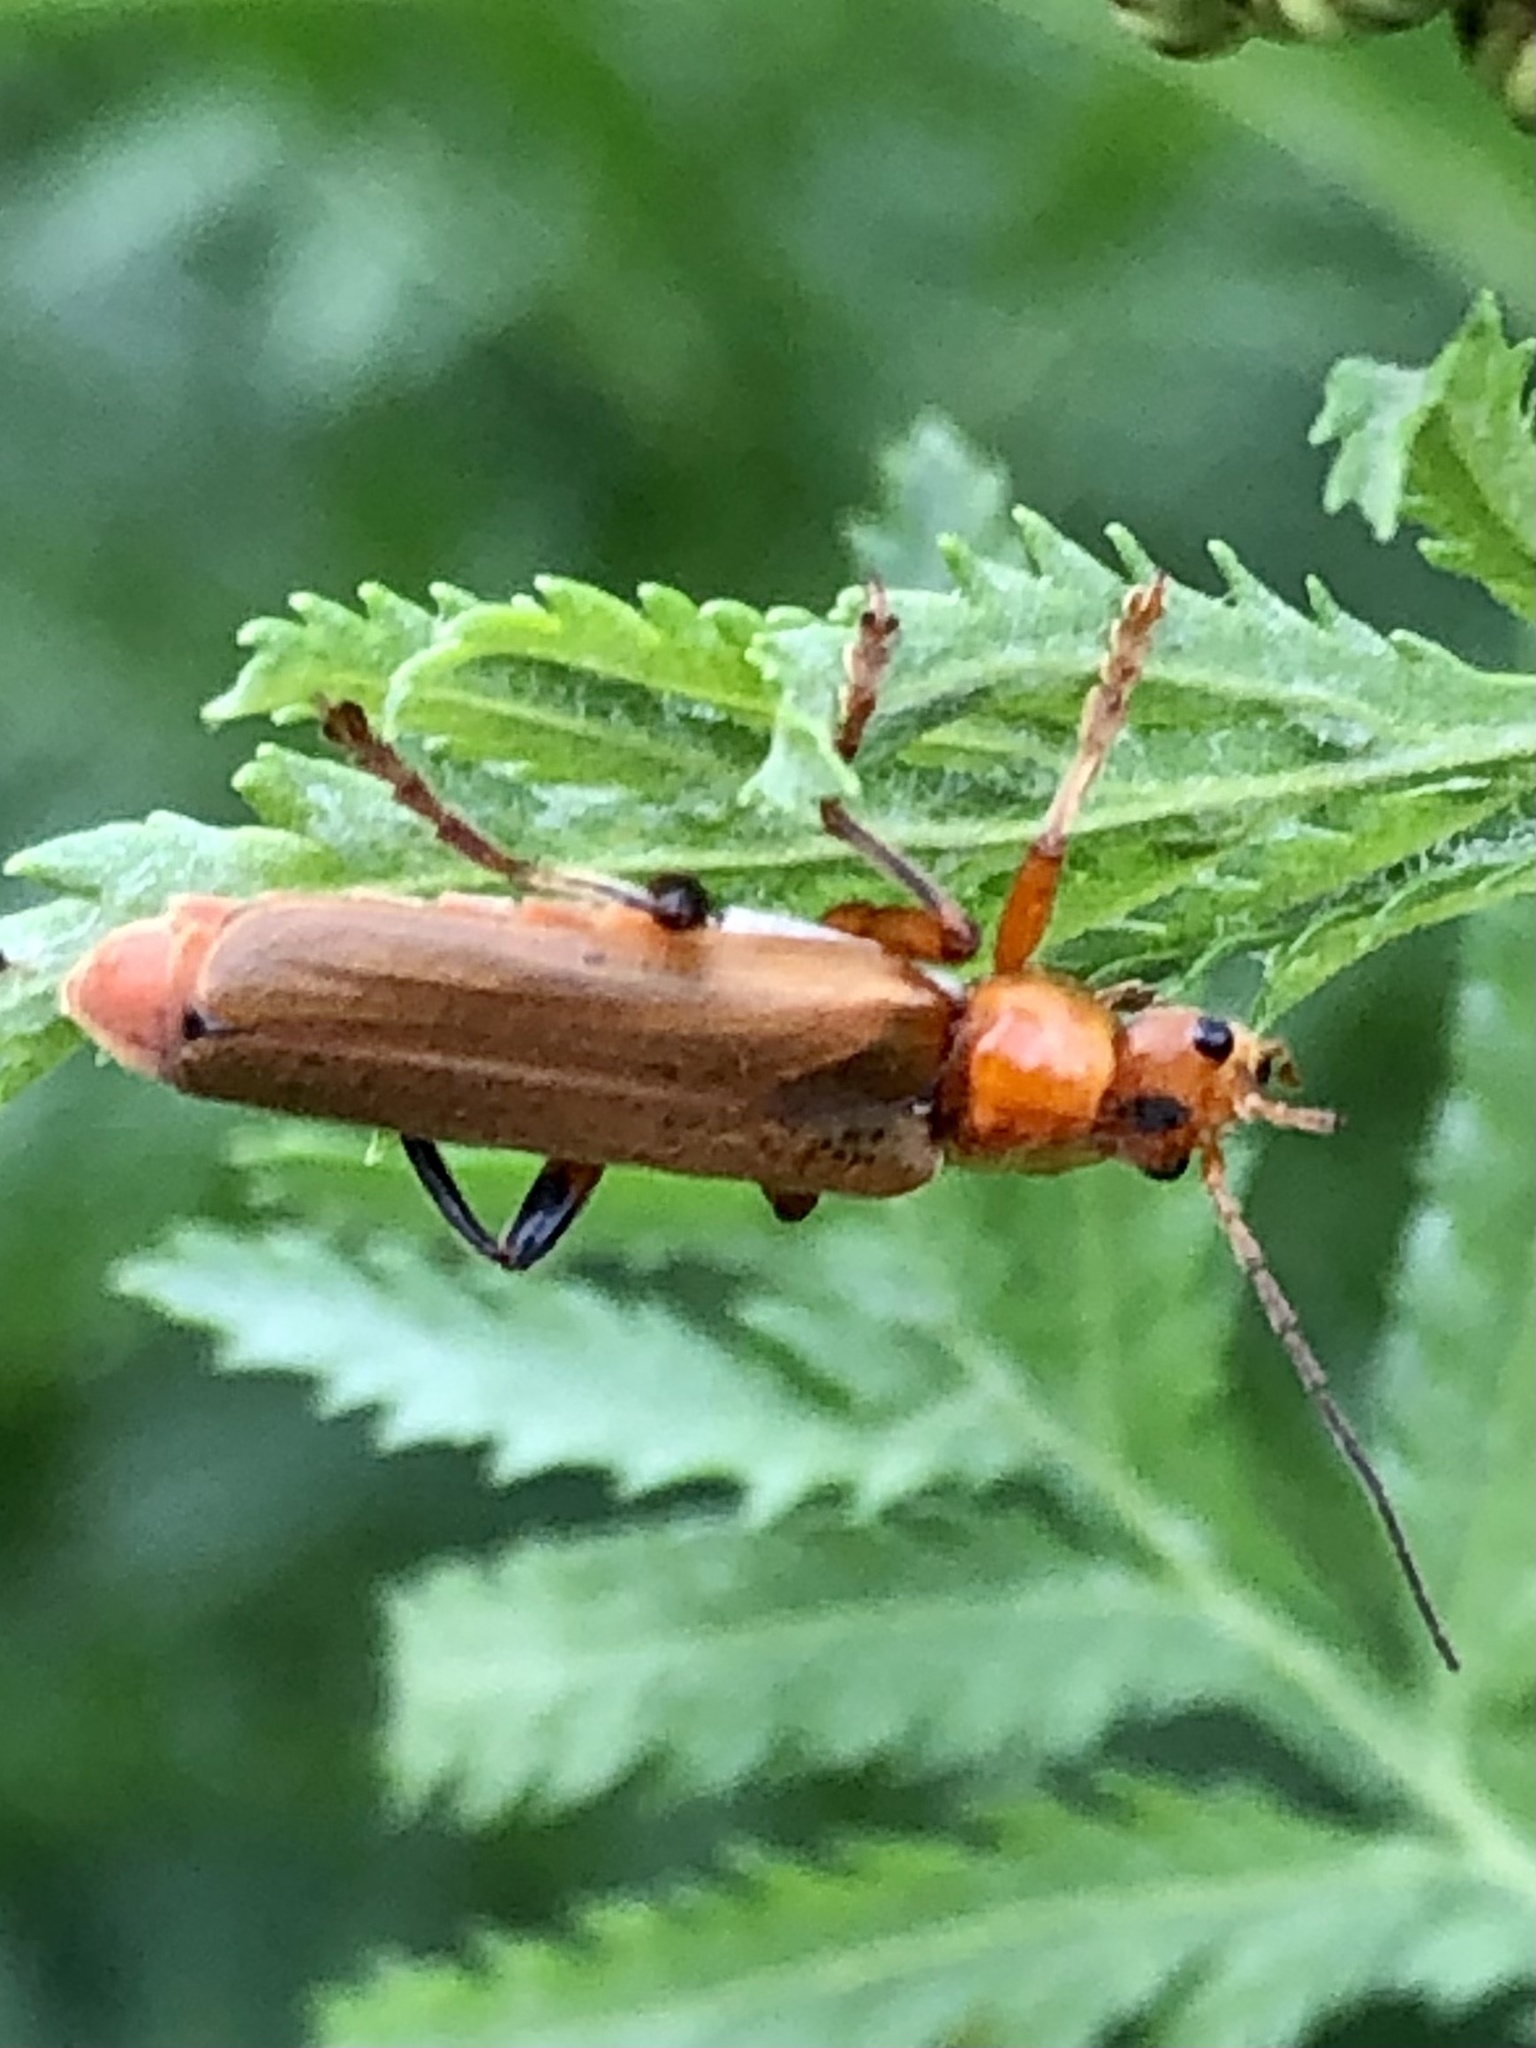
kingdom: Animalia
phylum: Arthropoda
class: Insecta
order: Coleoptera
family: Cantharidae
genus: Rhagonycha
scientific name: Rhagonycha fulva
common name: Common red soldier beetle
